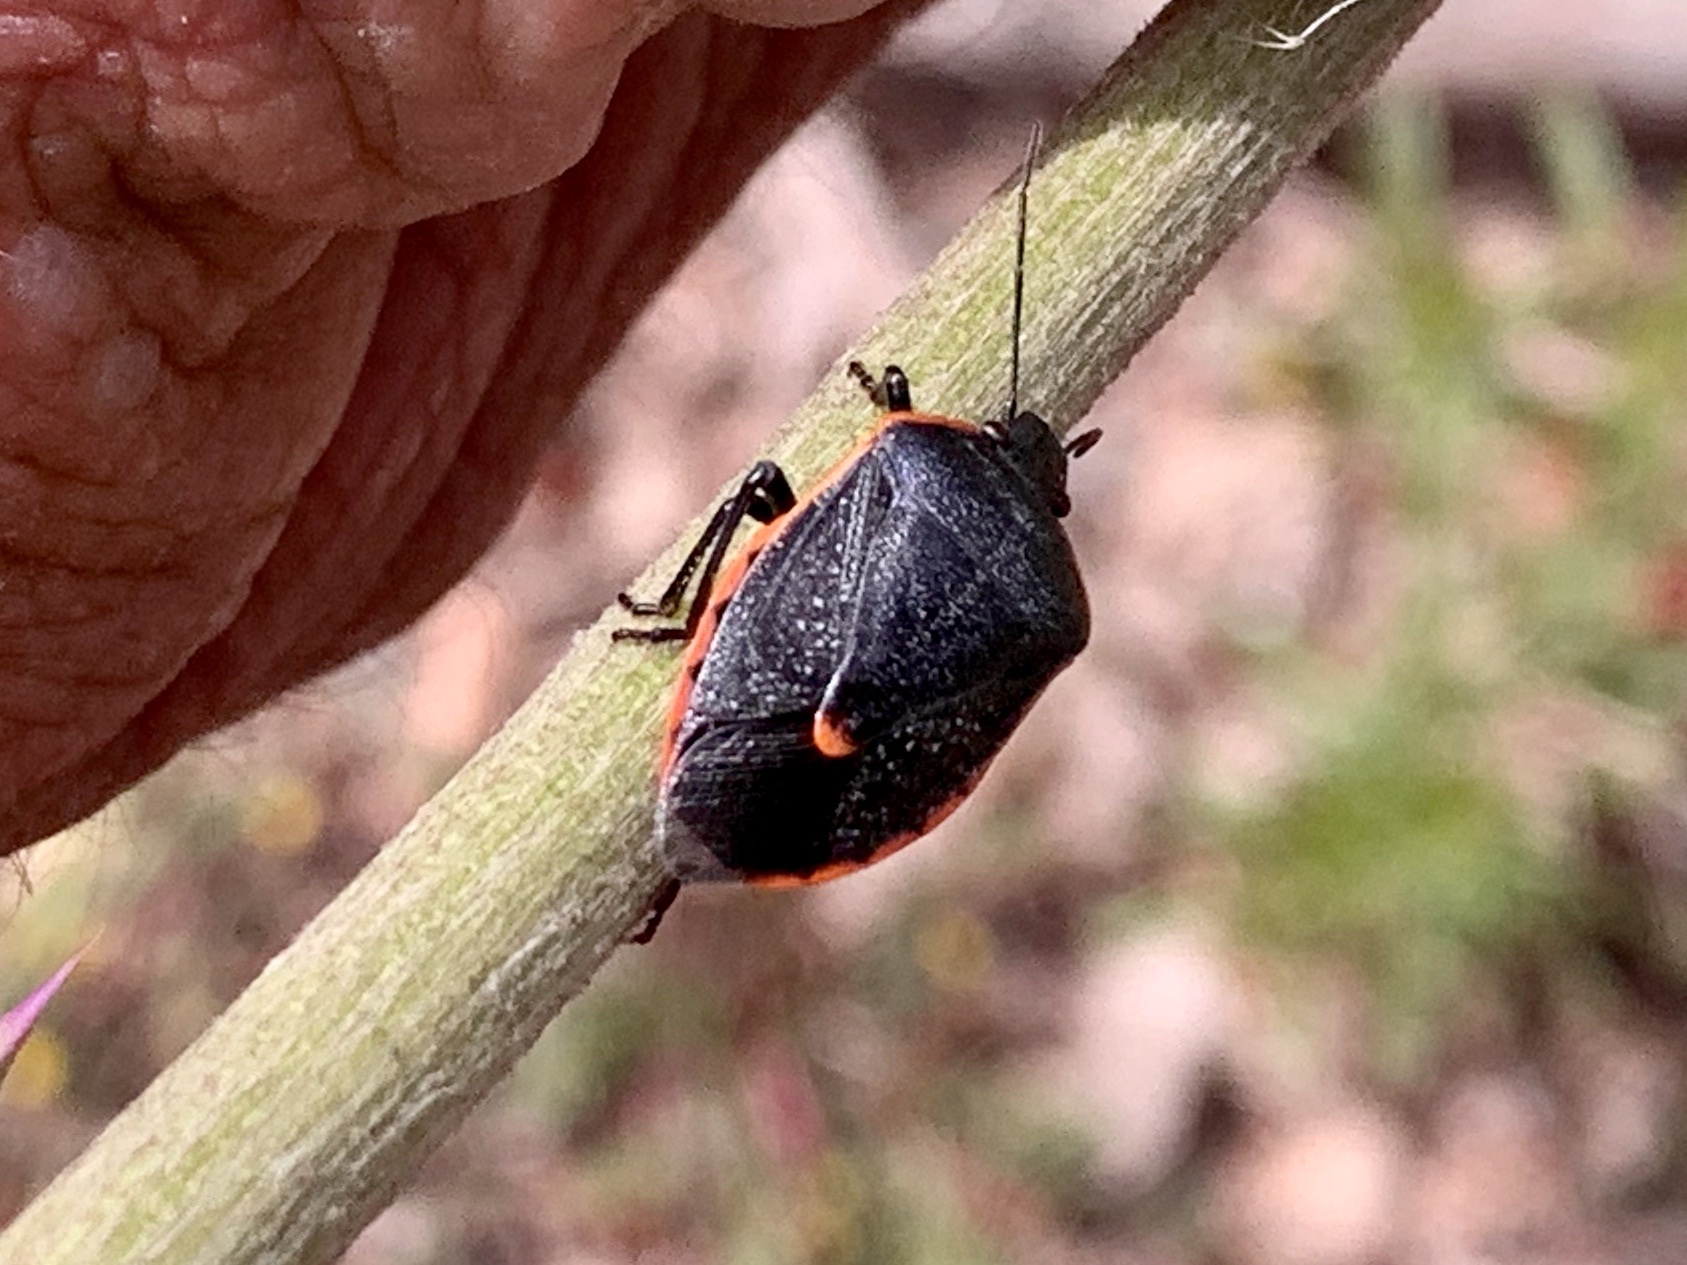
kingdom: Animalia
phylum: Arthropoda
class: Insecta
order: Hemiptera
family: Pentatomidae
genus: Chlorochroa
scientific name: Chlorochroa ligata
